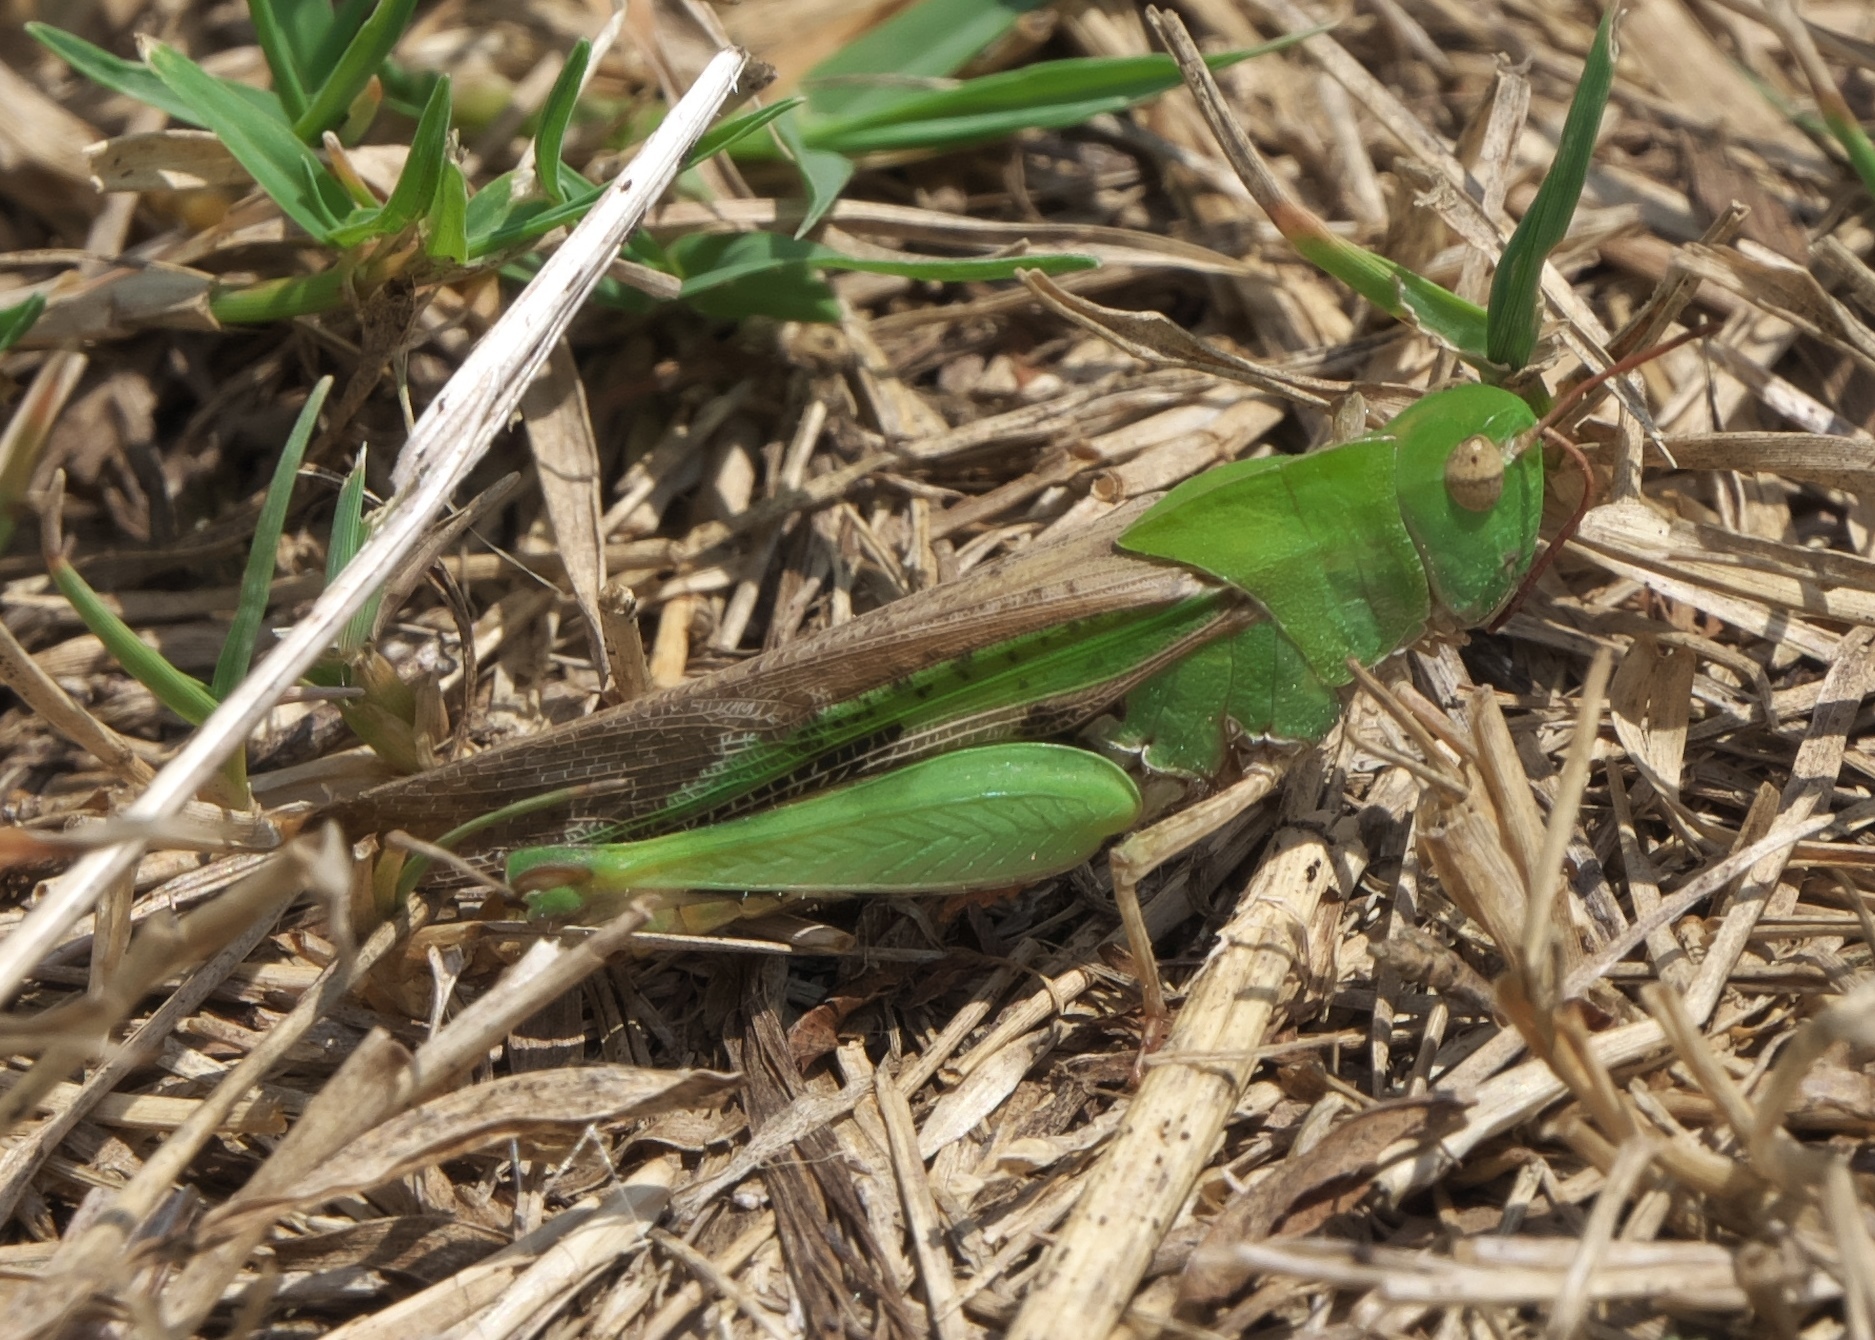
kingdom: Animalia
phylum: Arthropoda
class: Insecta
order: Orthoptera
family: Acrididae
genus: Chortophaga
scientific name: Chortophaga viridifasciata
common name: Green-striped grasshopper
